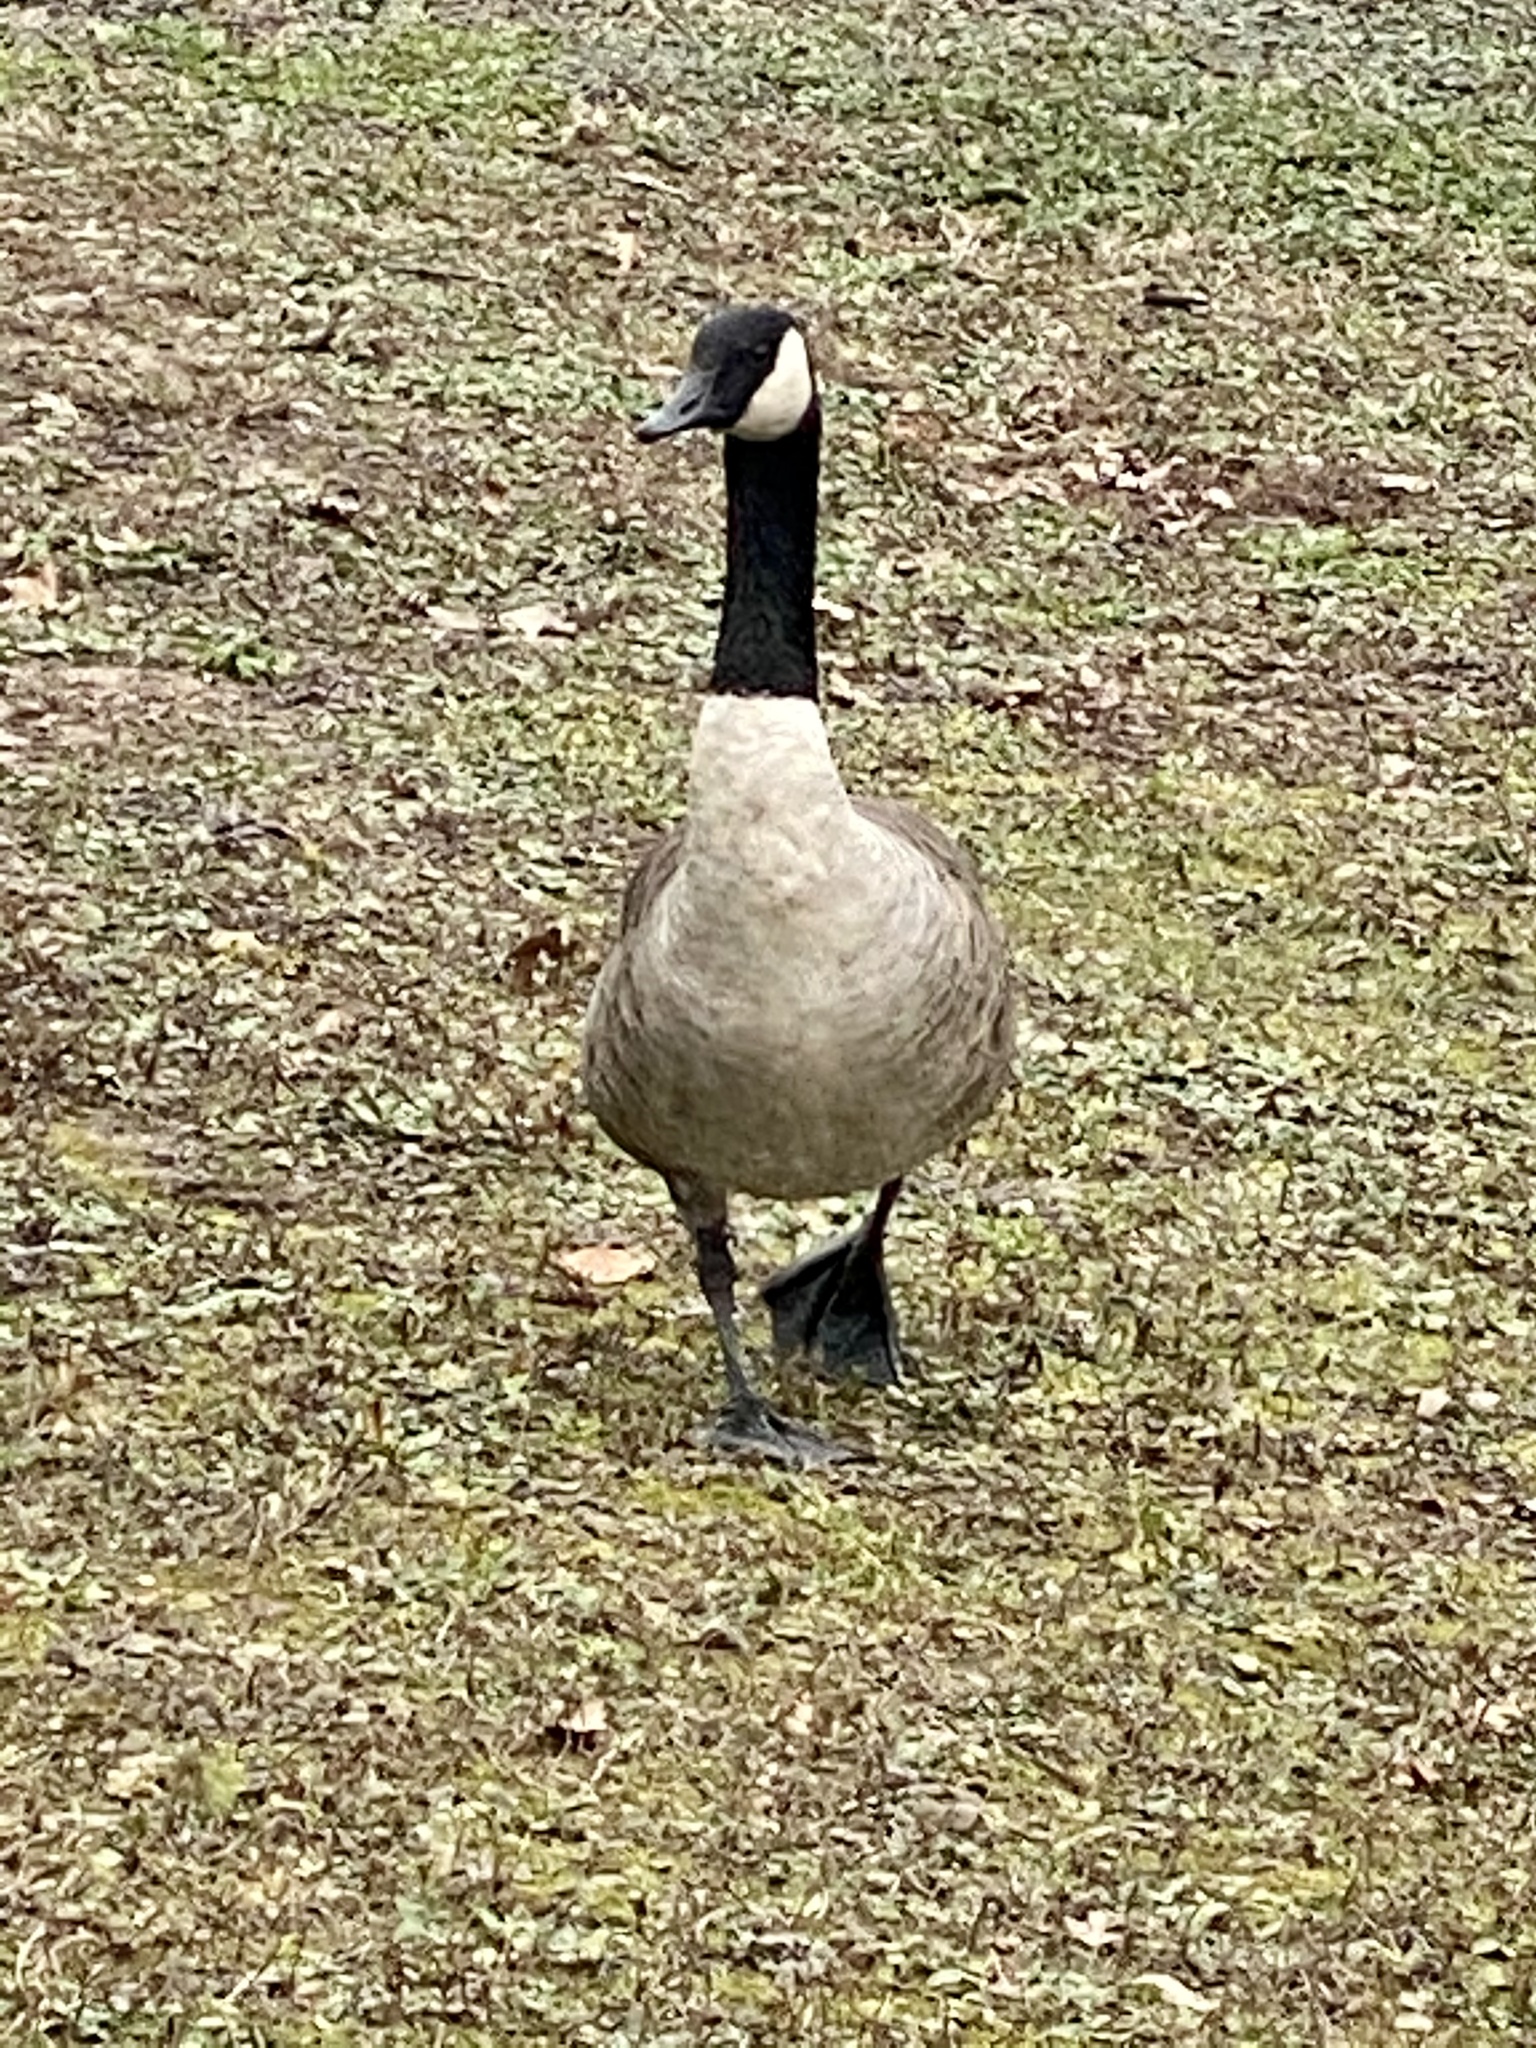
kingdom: Animalia
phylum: Chordata
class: Aves
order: Anseriformes
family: Anatidae
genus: Branta
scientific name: Branta canadensis
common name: Canada goose
